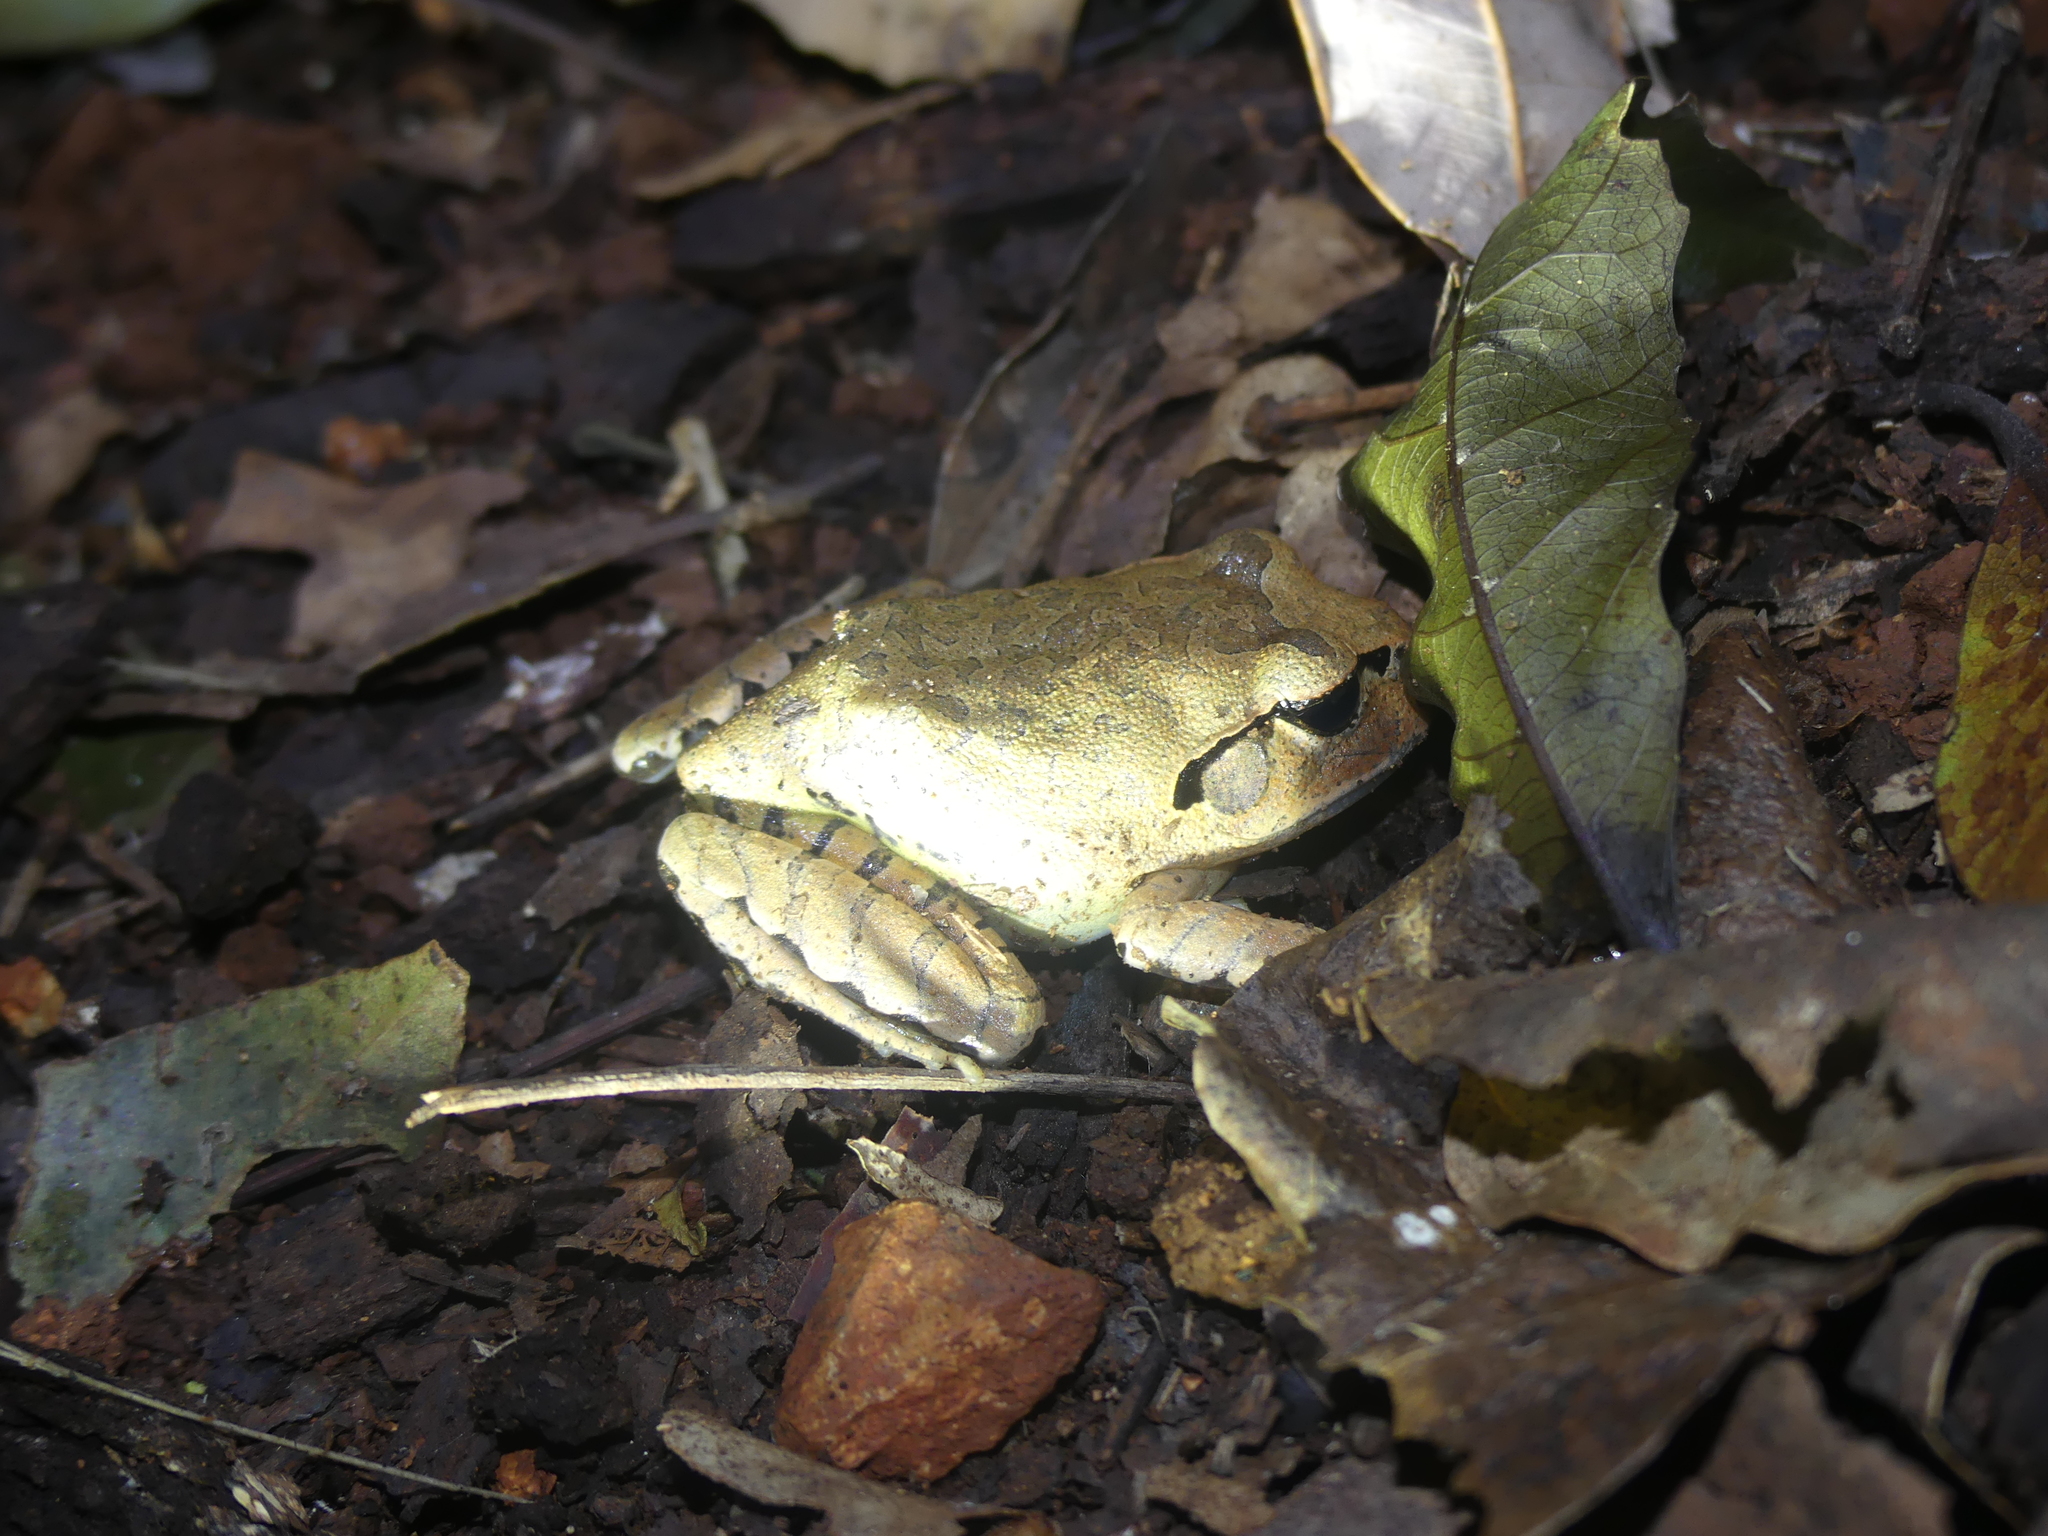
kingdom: Animalia
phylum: Chordata
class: Amphibia
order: Anura
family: Myobatrachidae
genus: Mixophyes
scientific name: Mixophyes fasciolatus
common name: Great barred river-frog
